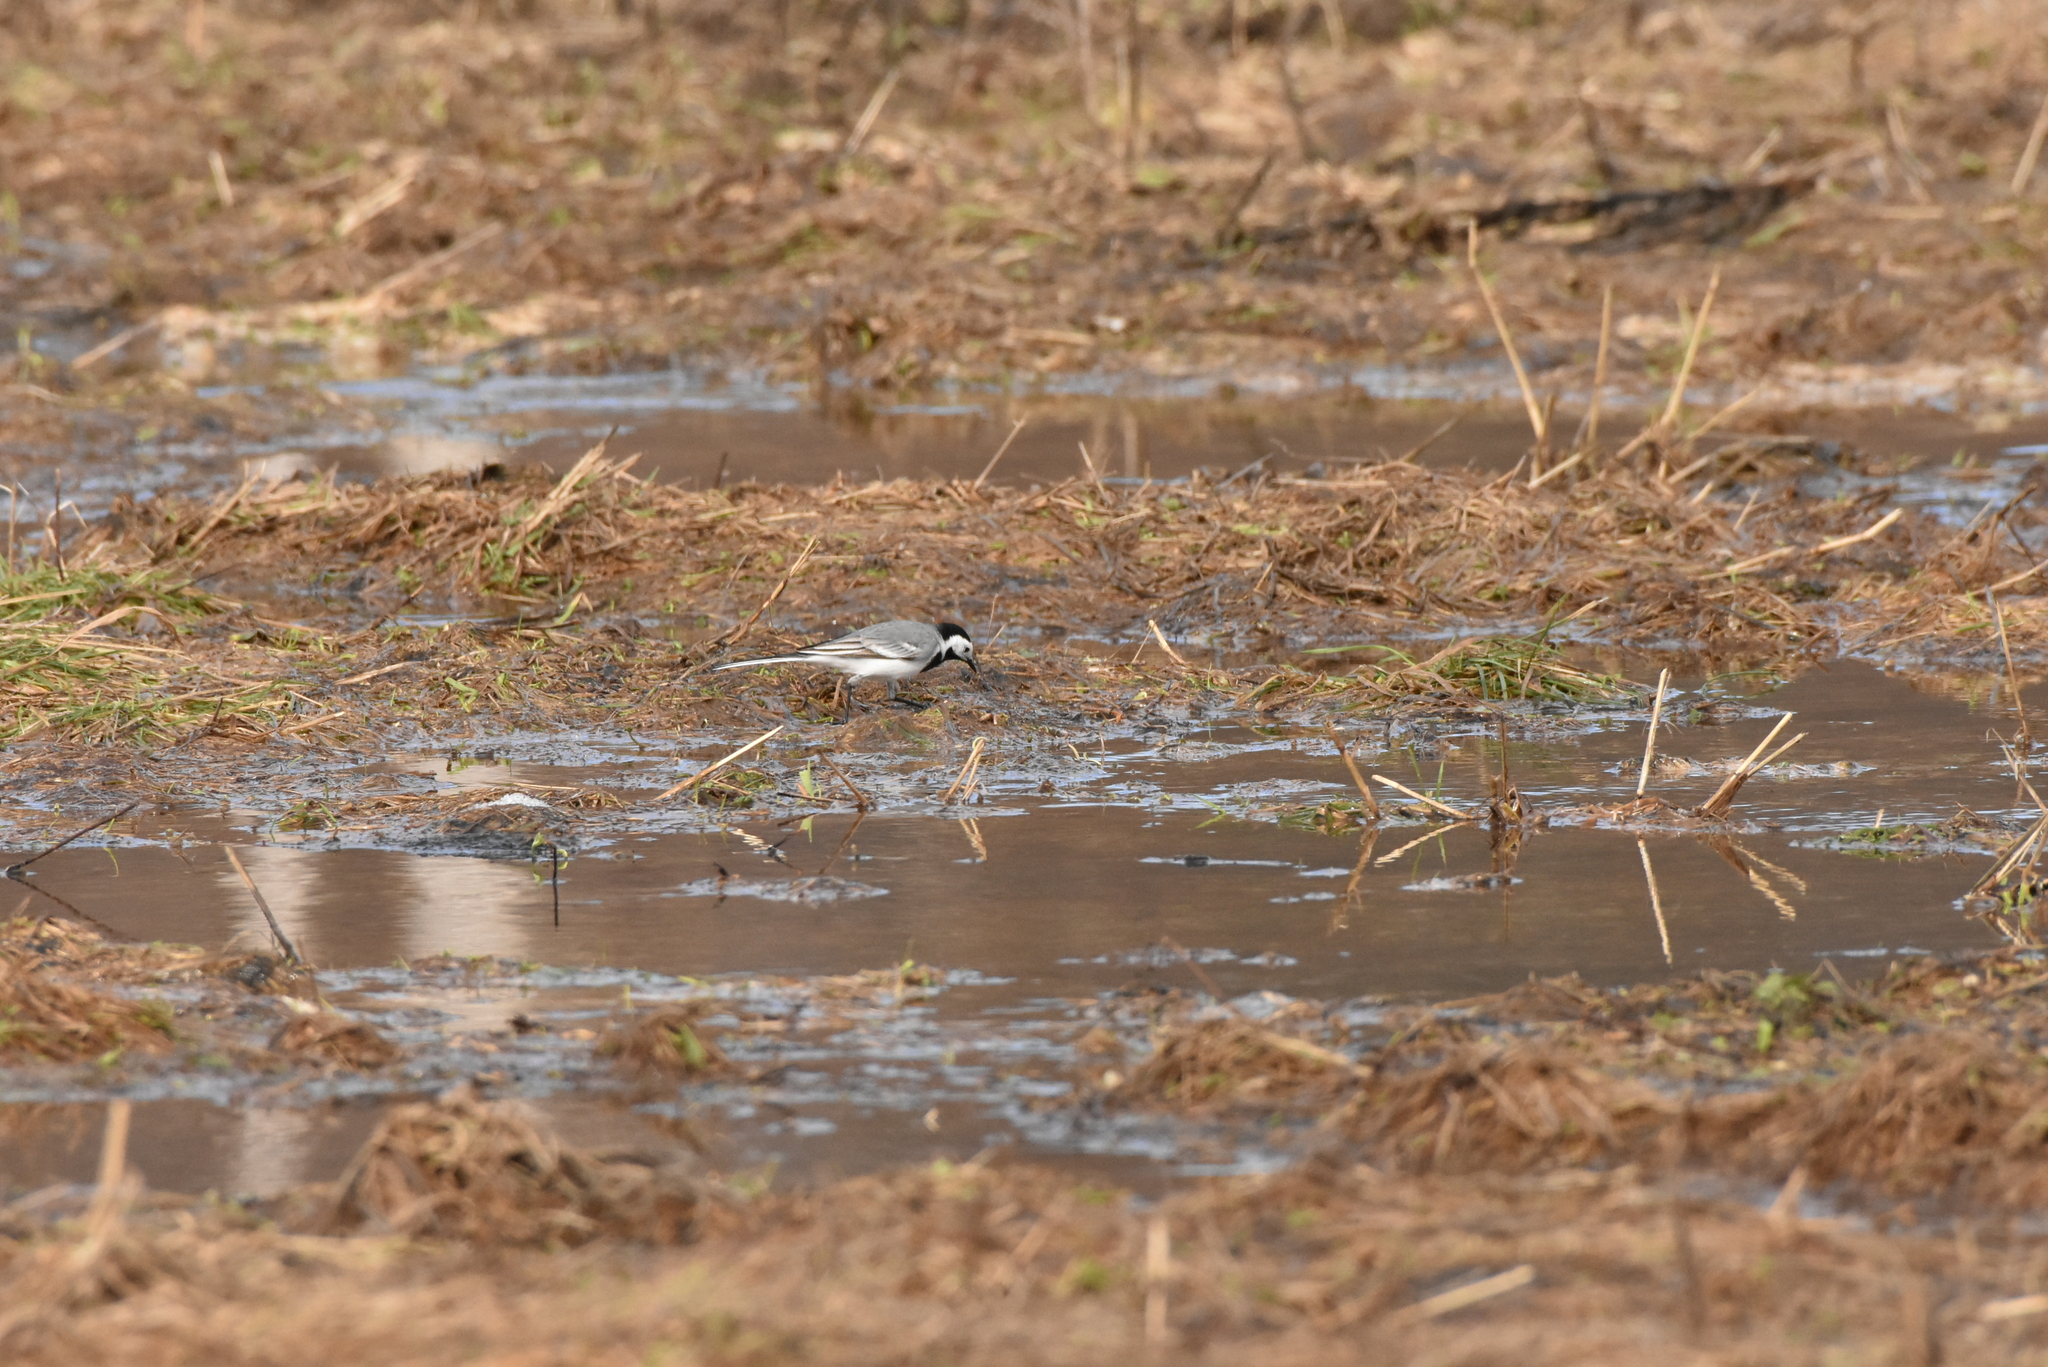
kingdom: Animalia
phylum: Chordata
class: Aves
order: Passeriformes
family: Motacillidae
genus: Motacilla
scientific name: Motacilla alba
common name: White wagtail
